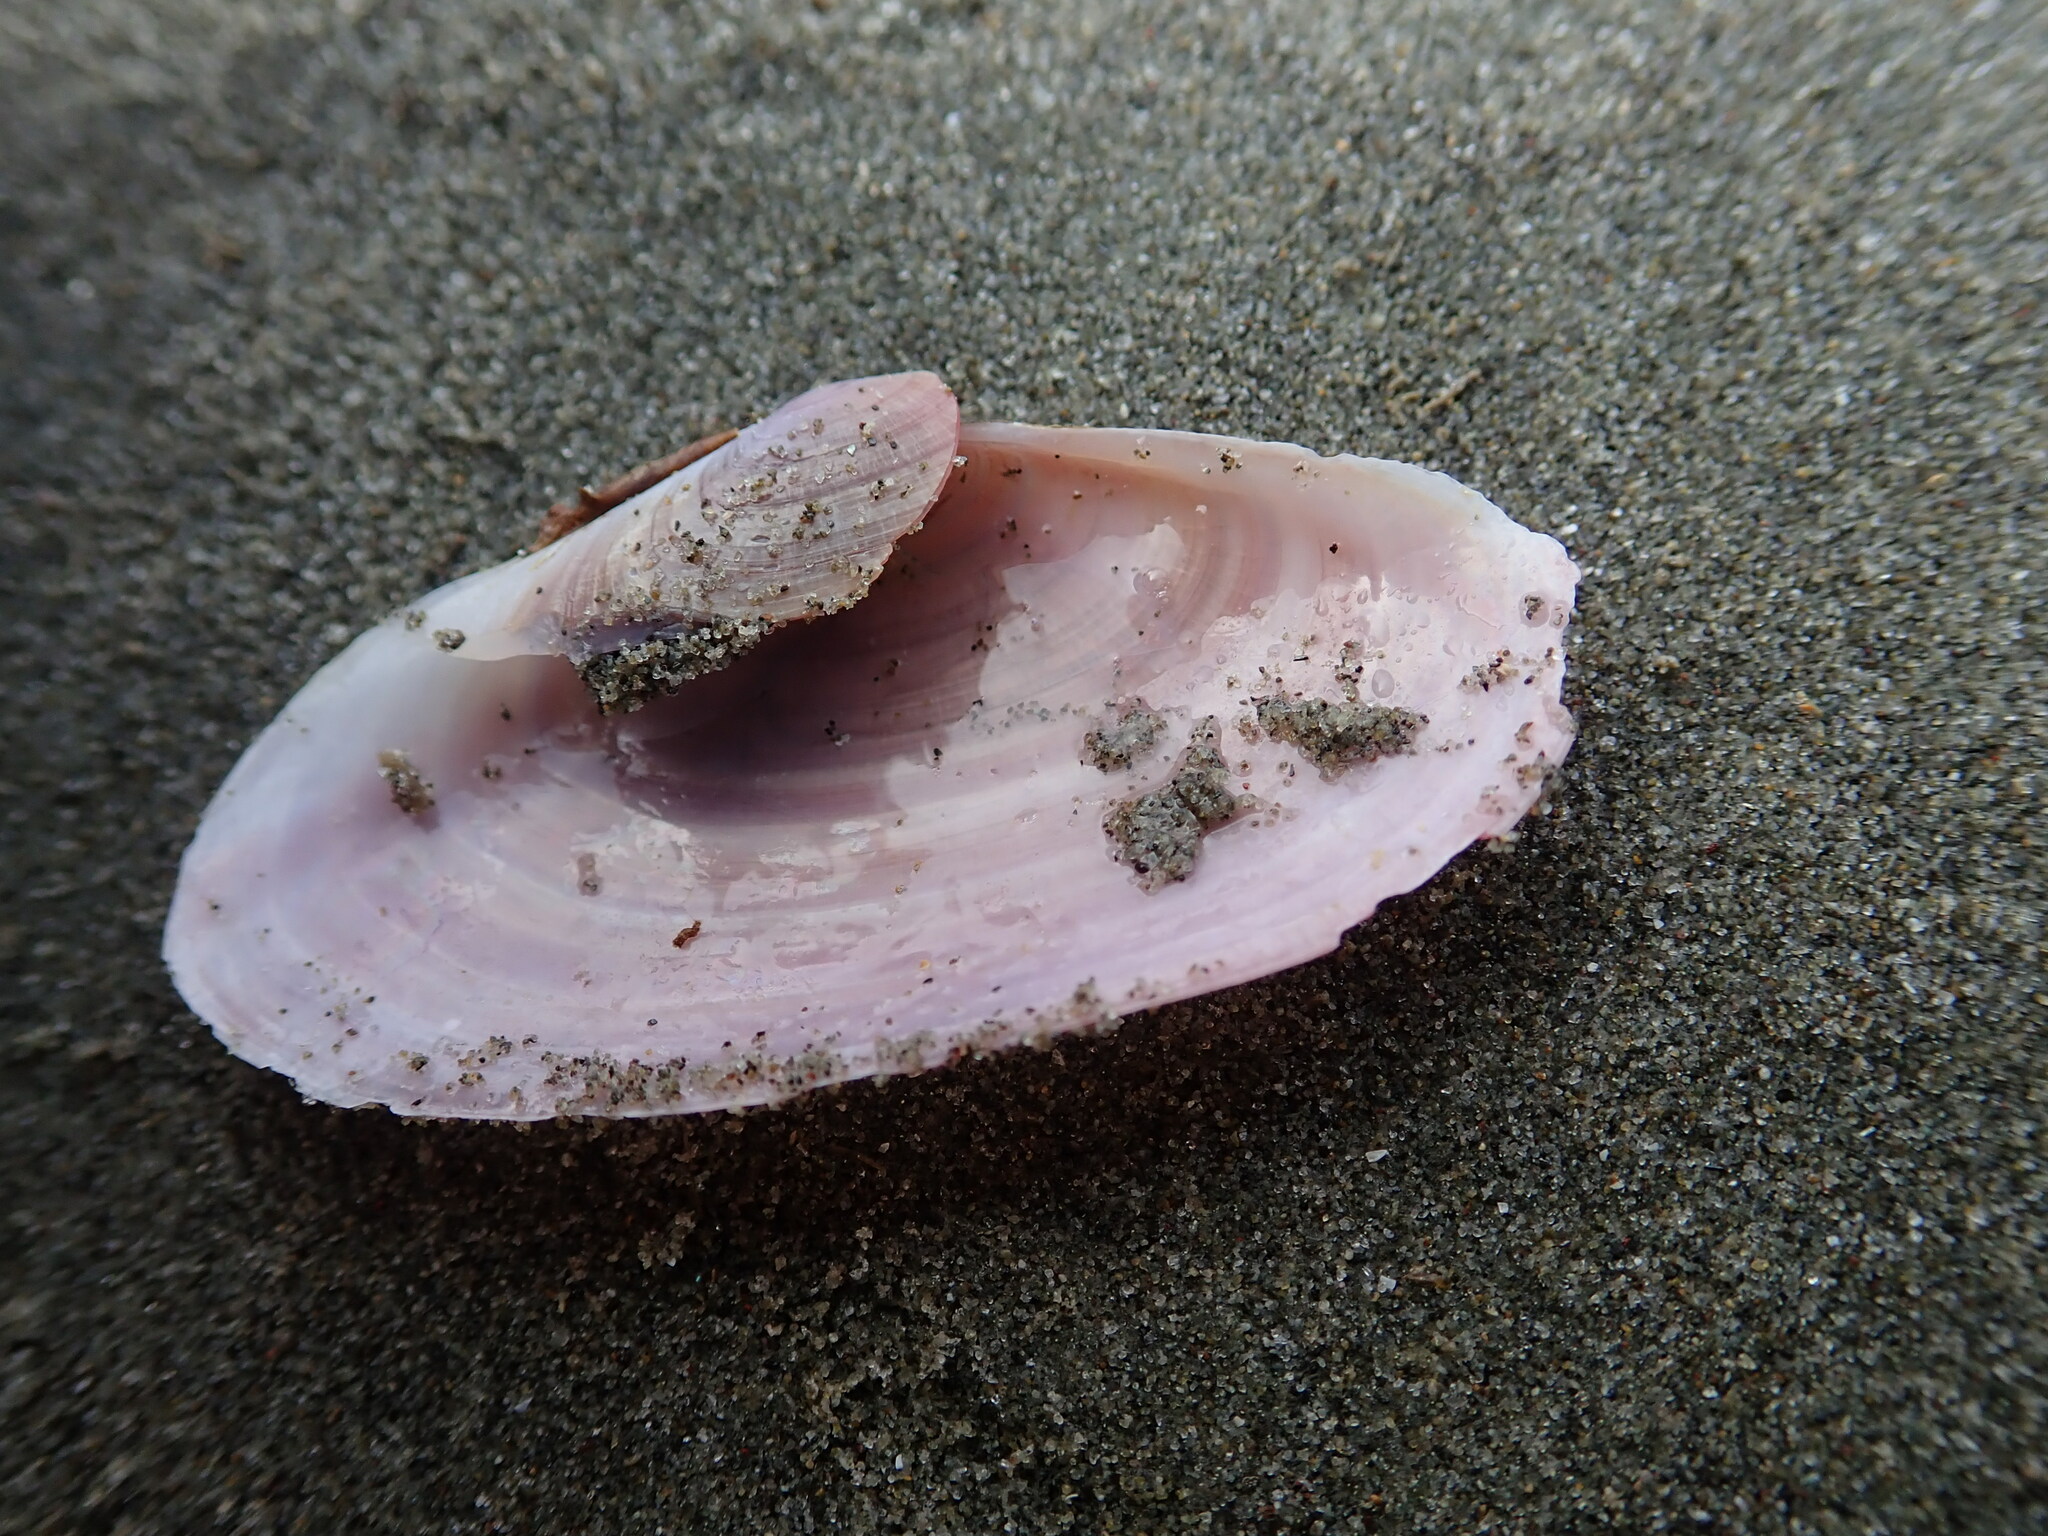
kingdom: Animalia
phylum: Mollusca
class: Bivalvia
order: Cardiida
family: Psammobiidae
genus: Gari
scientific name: Gari lineolata
